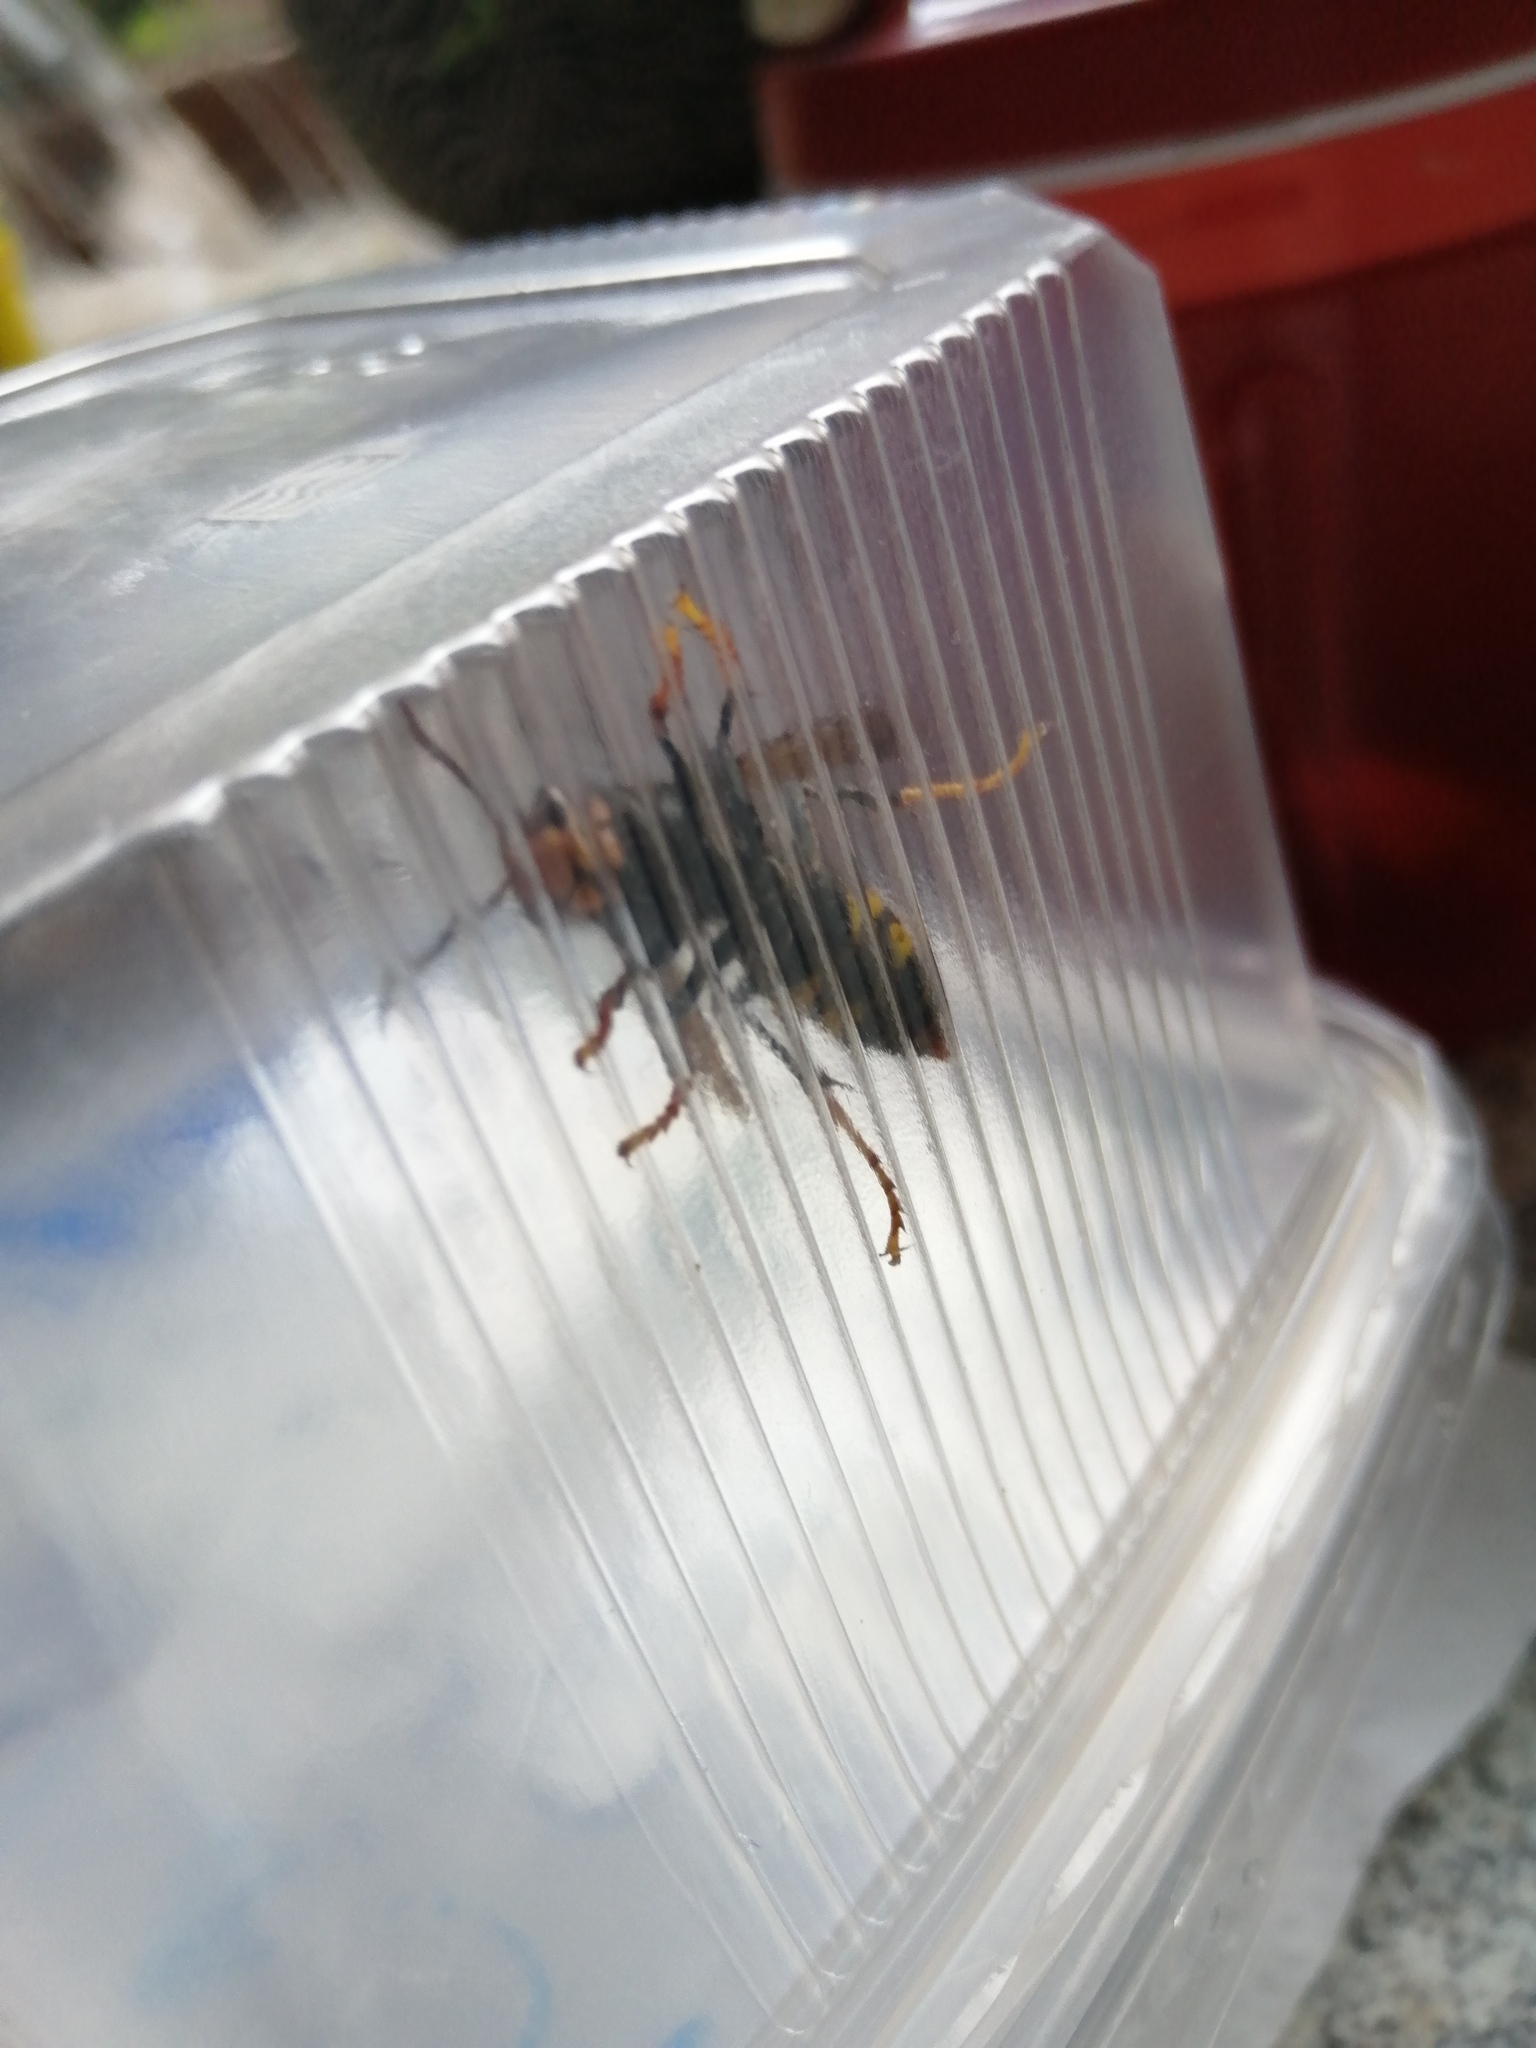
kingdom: Animalia
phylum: Arthropoda
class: Insecta
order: Hymenoptera
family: Vespidae
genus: Vespa
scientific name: Vespa velutina
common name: Asian hornet
